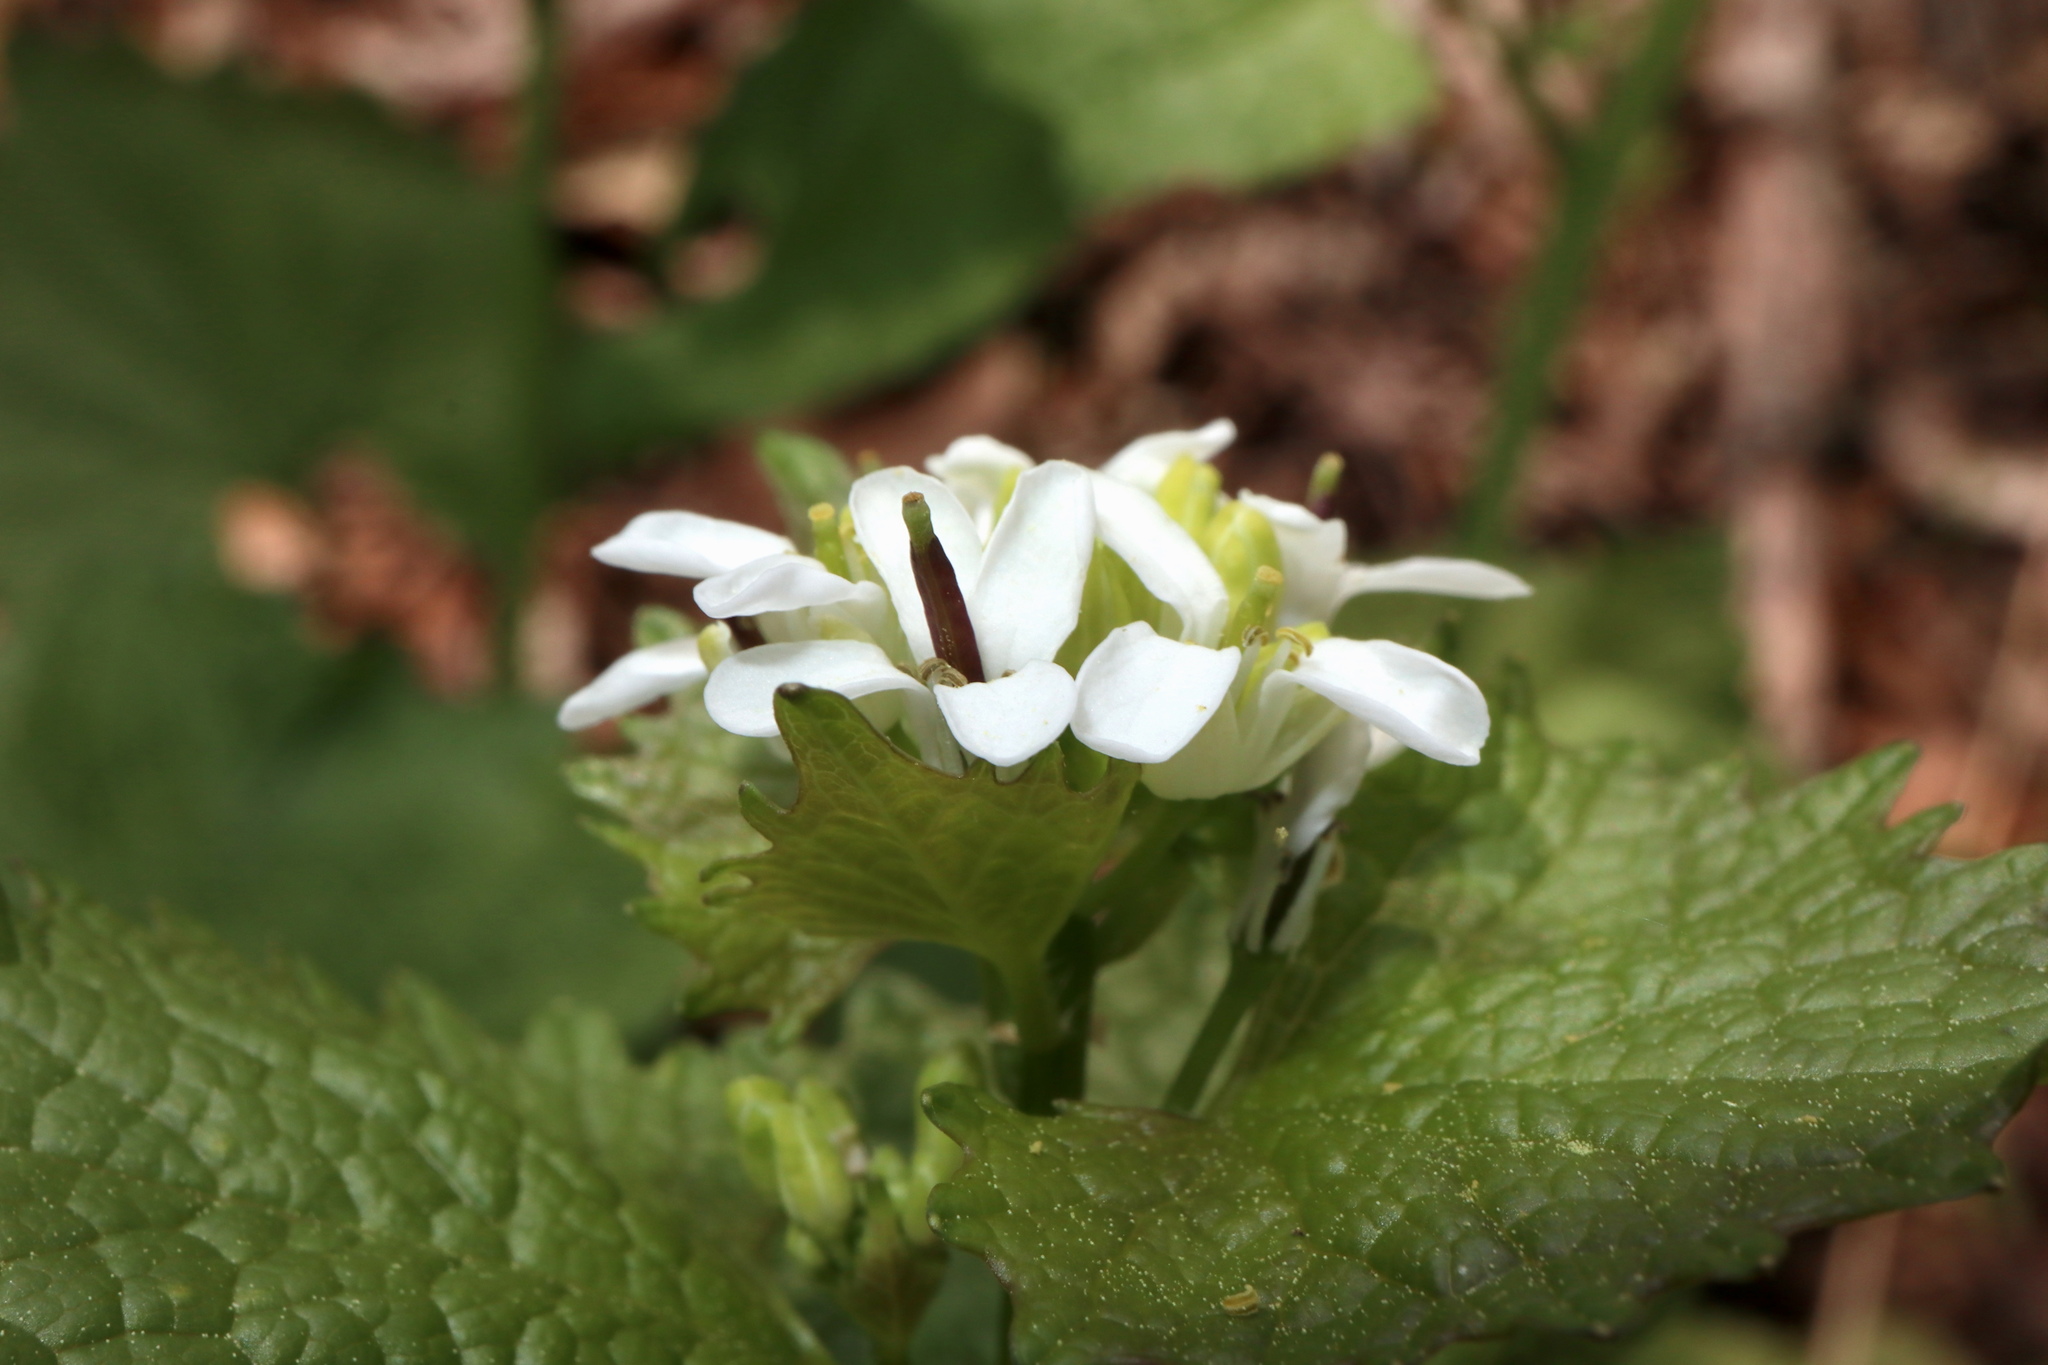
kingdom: Plantae
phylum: Tracheophyta
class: Magnoliopsida
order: Brassicales
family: Brassicaceae
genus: Alliaria
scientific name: Alliaria petiolata
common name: Garlic mustard
